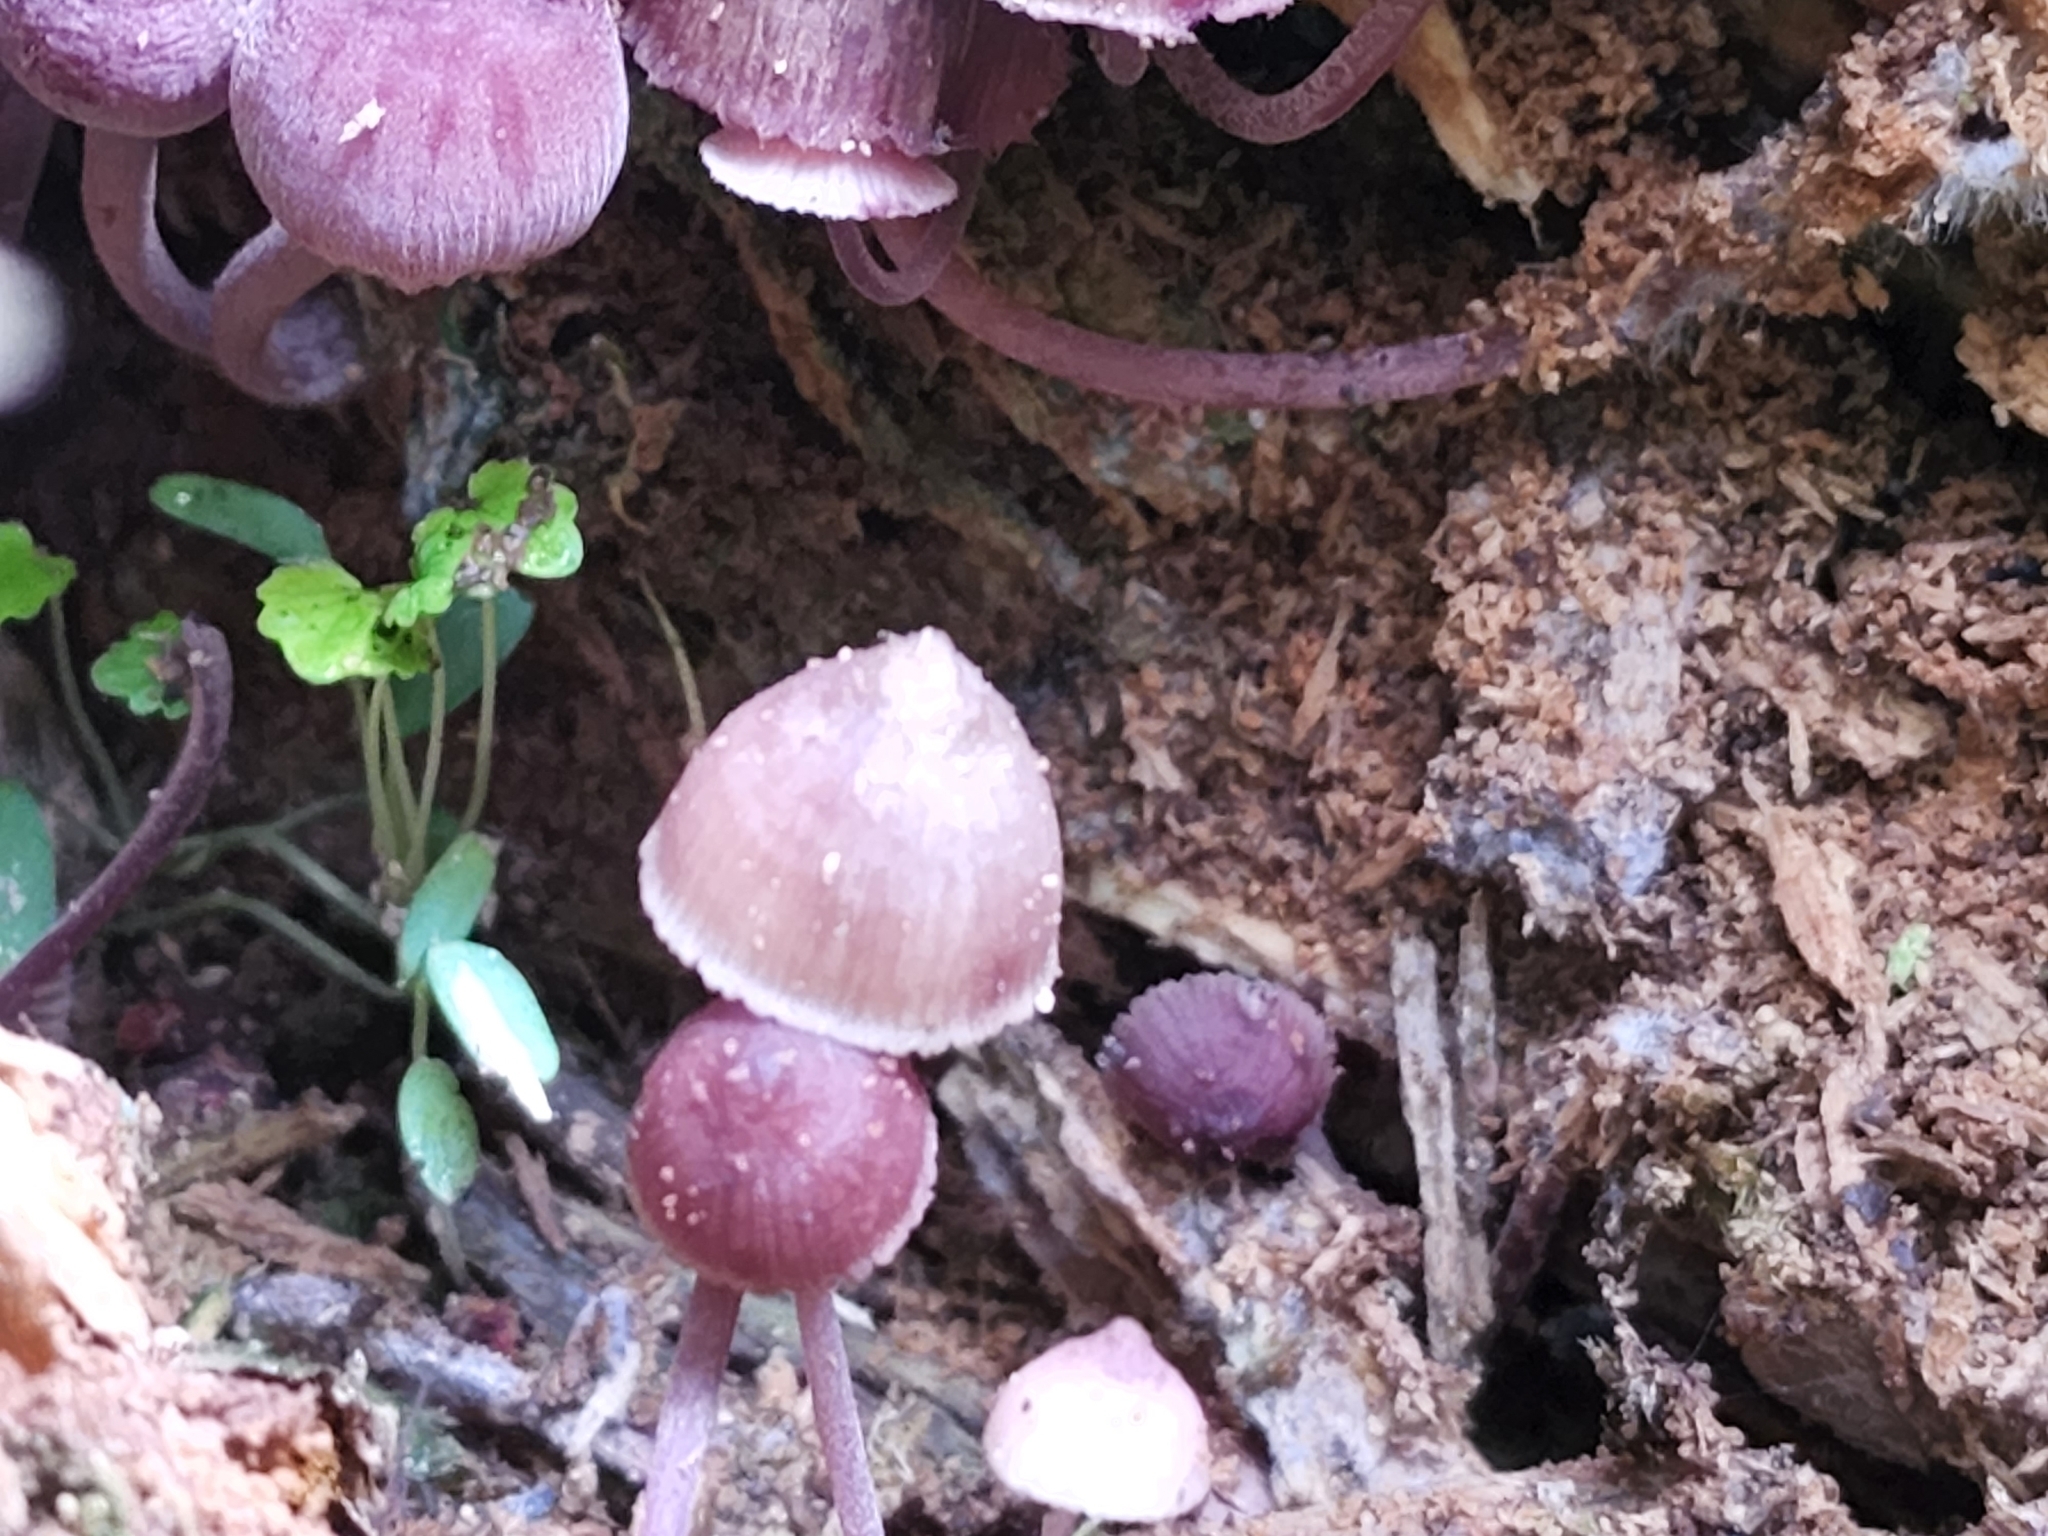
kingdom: Fungi
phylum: Basidiomycota
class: Agaricomycetes
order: Agaricales
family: Mycenaceae
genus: Mycena
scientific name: Mycena haematopus
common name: Burgundydrop bonnet
